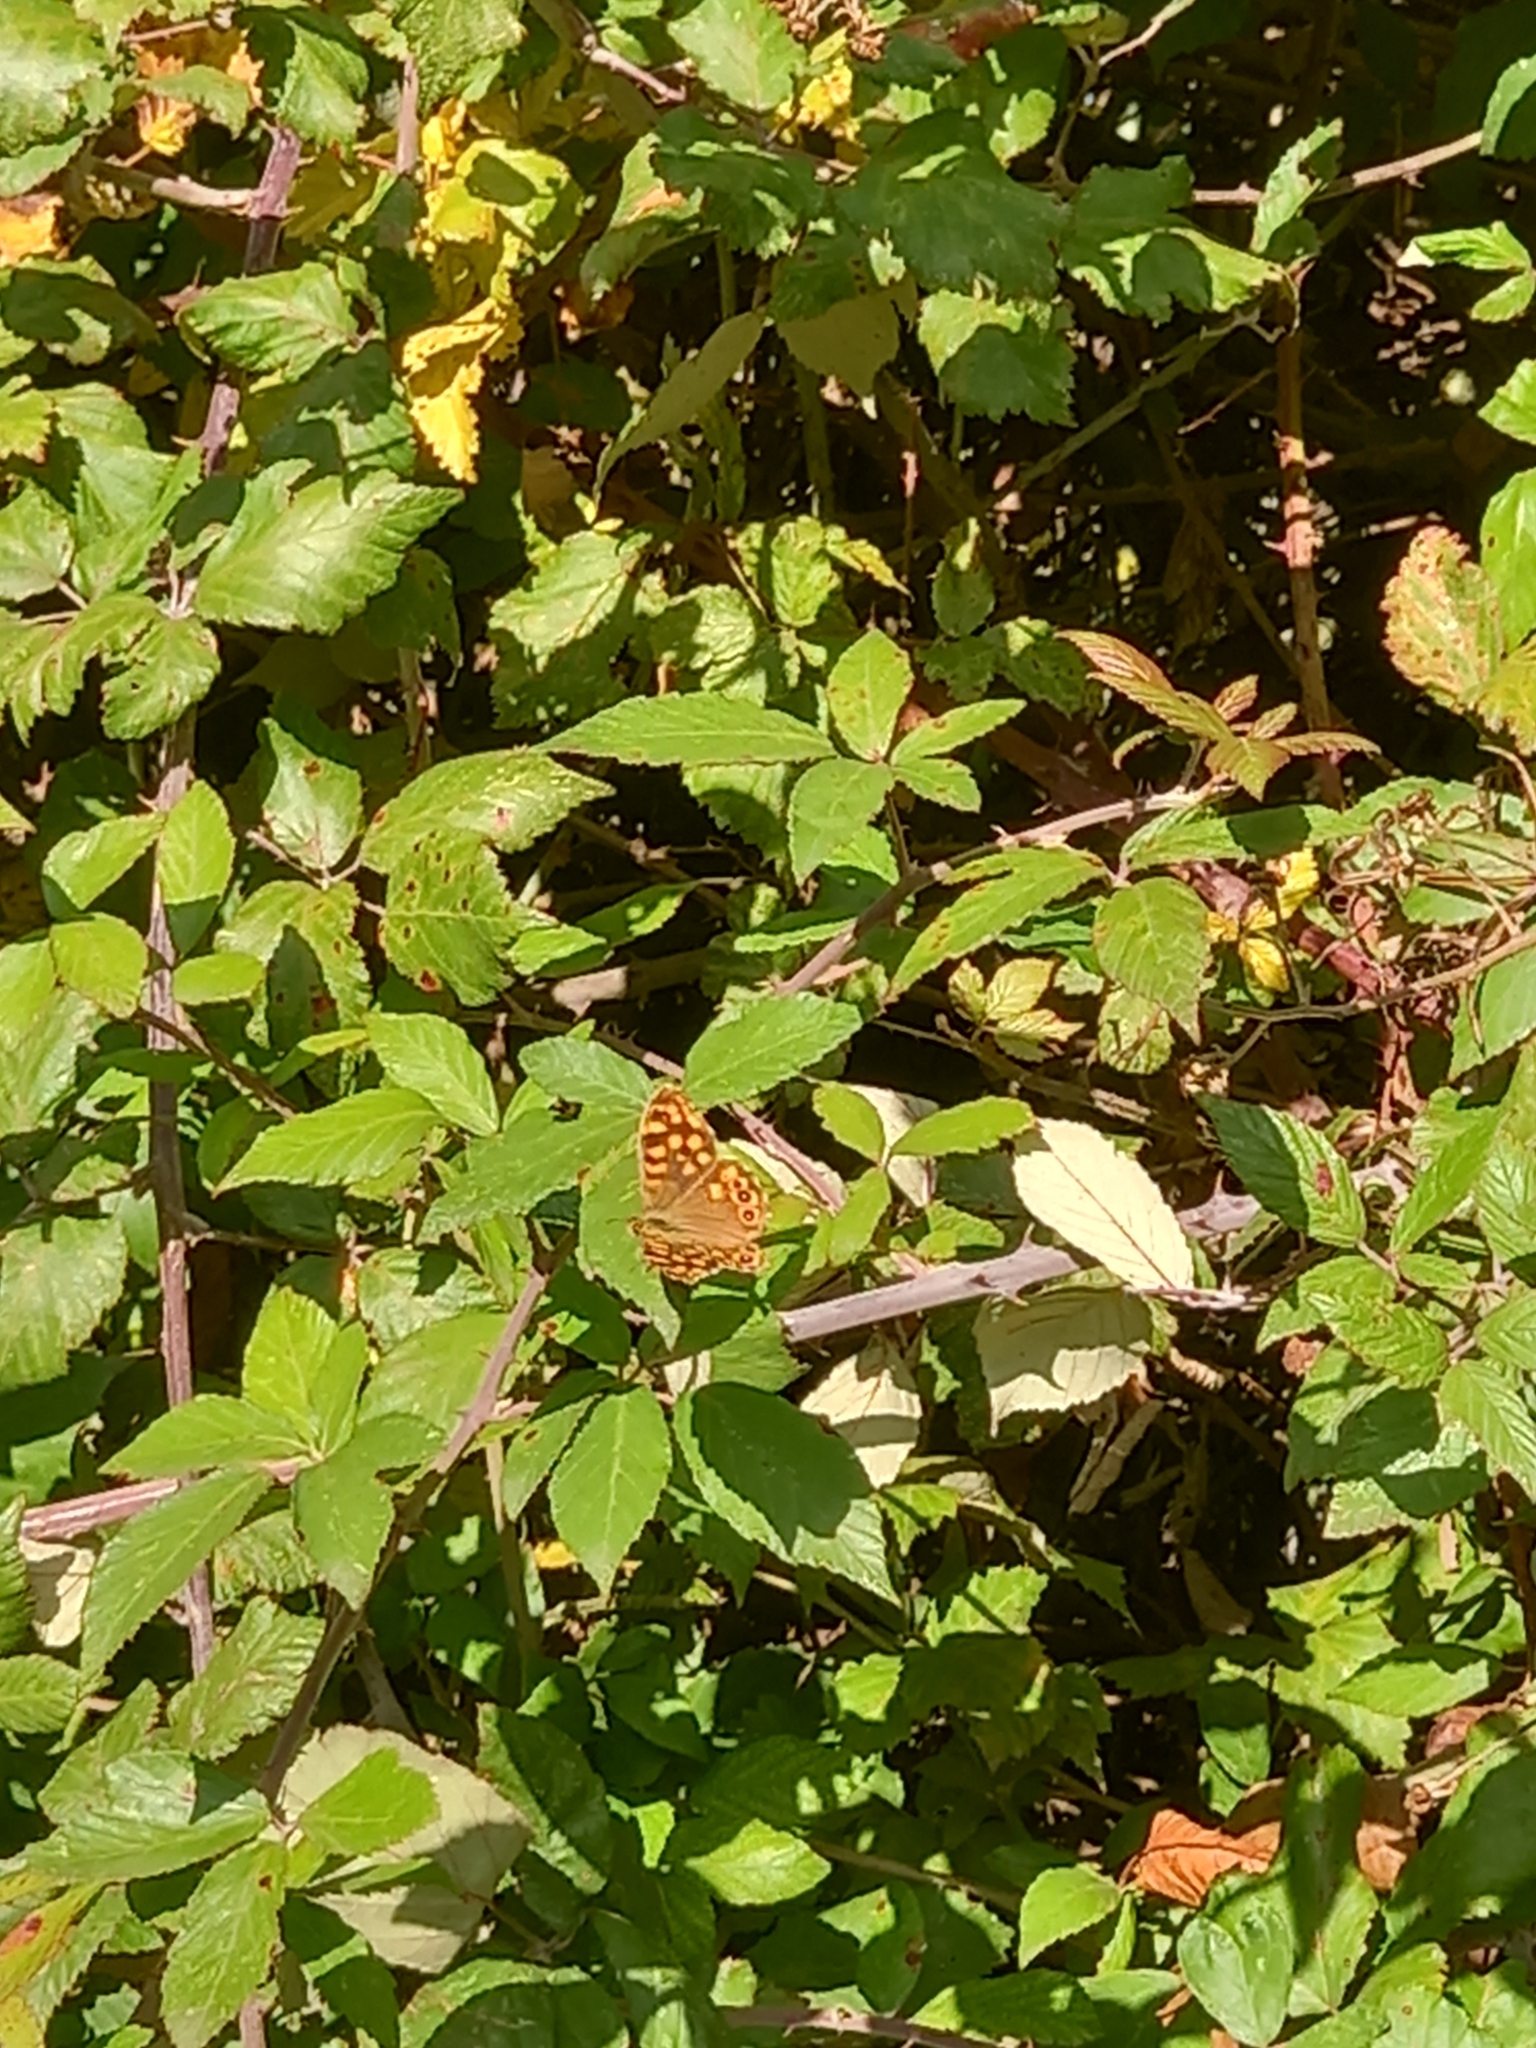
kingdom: Animalia
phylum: Arthropoda
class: Insecta
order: Lepidoptera
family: Nymphalidae
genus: Pararge
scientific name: Pararge aegeria
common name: Speckled wood
